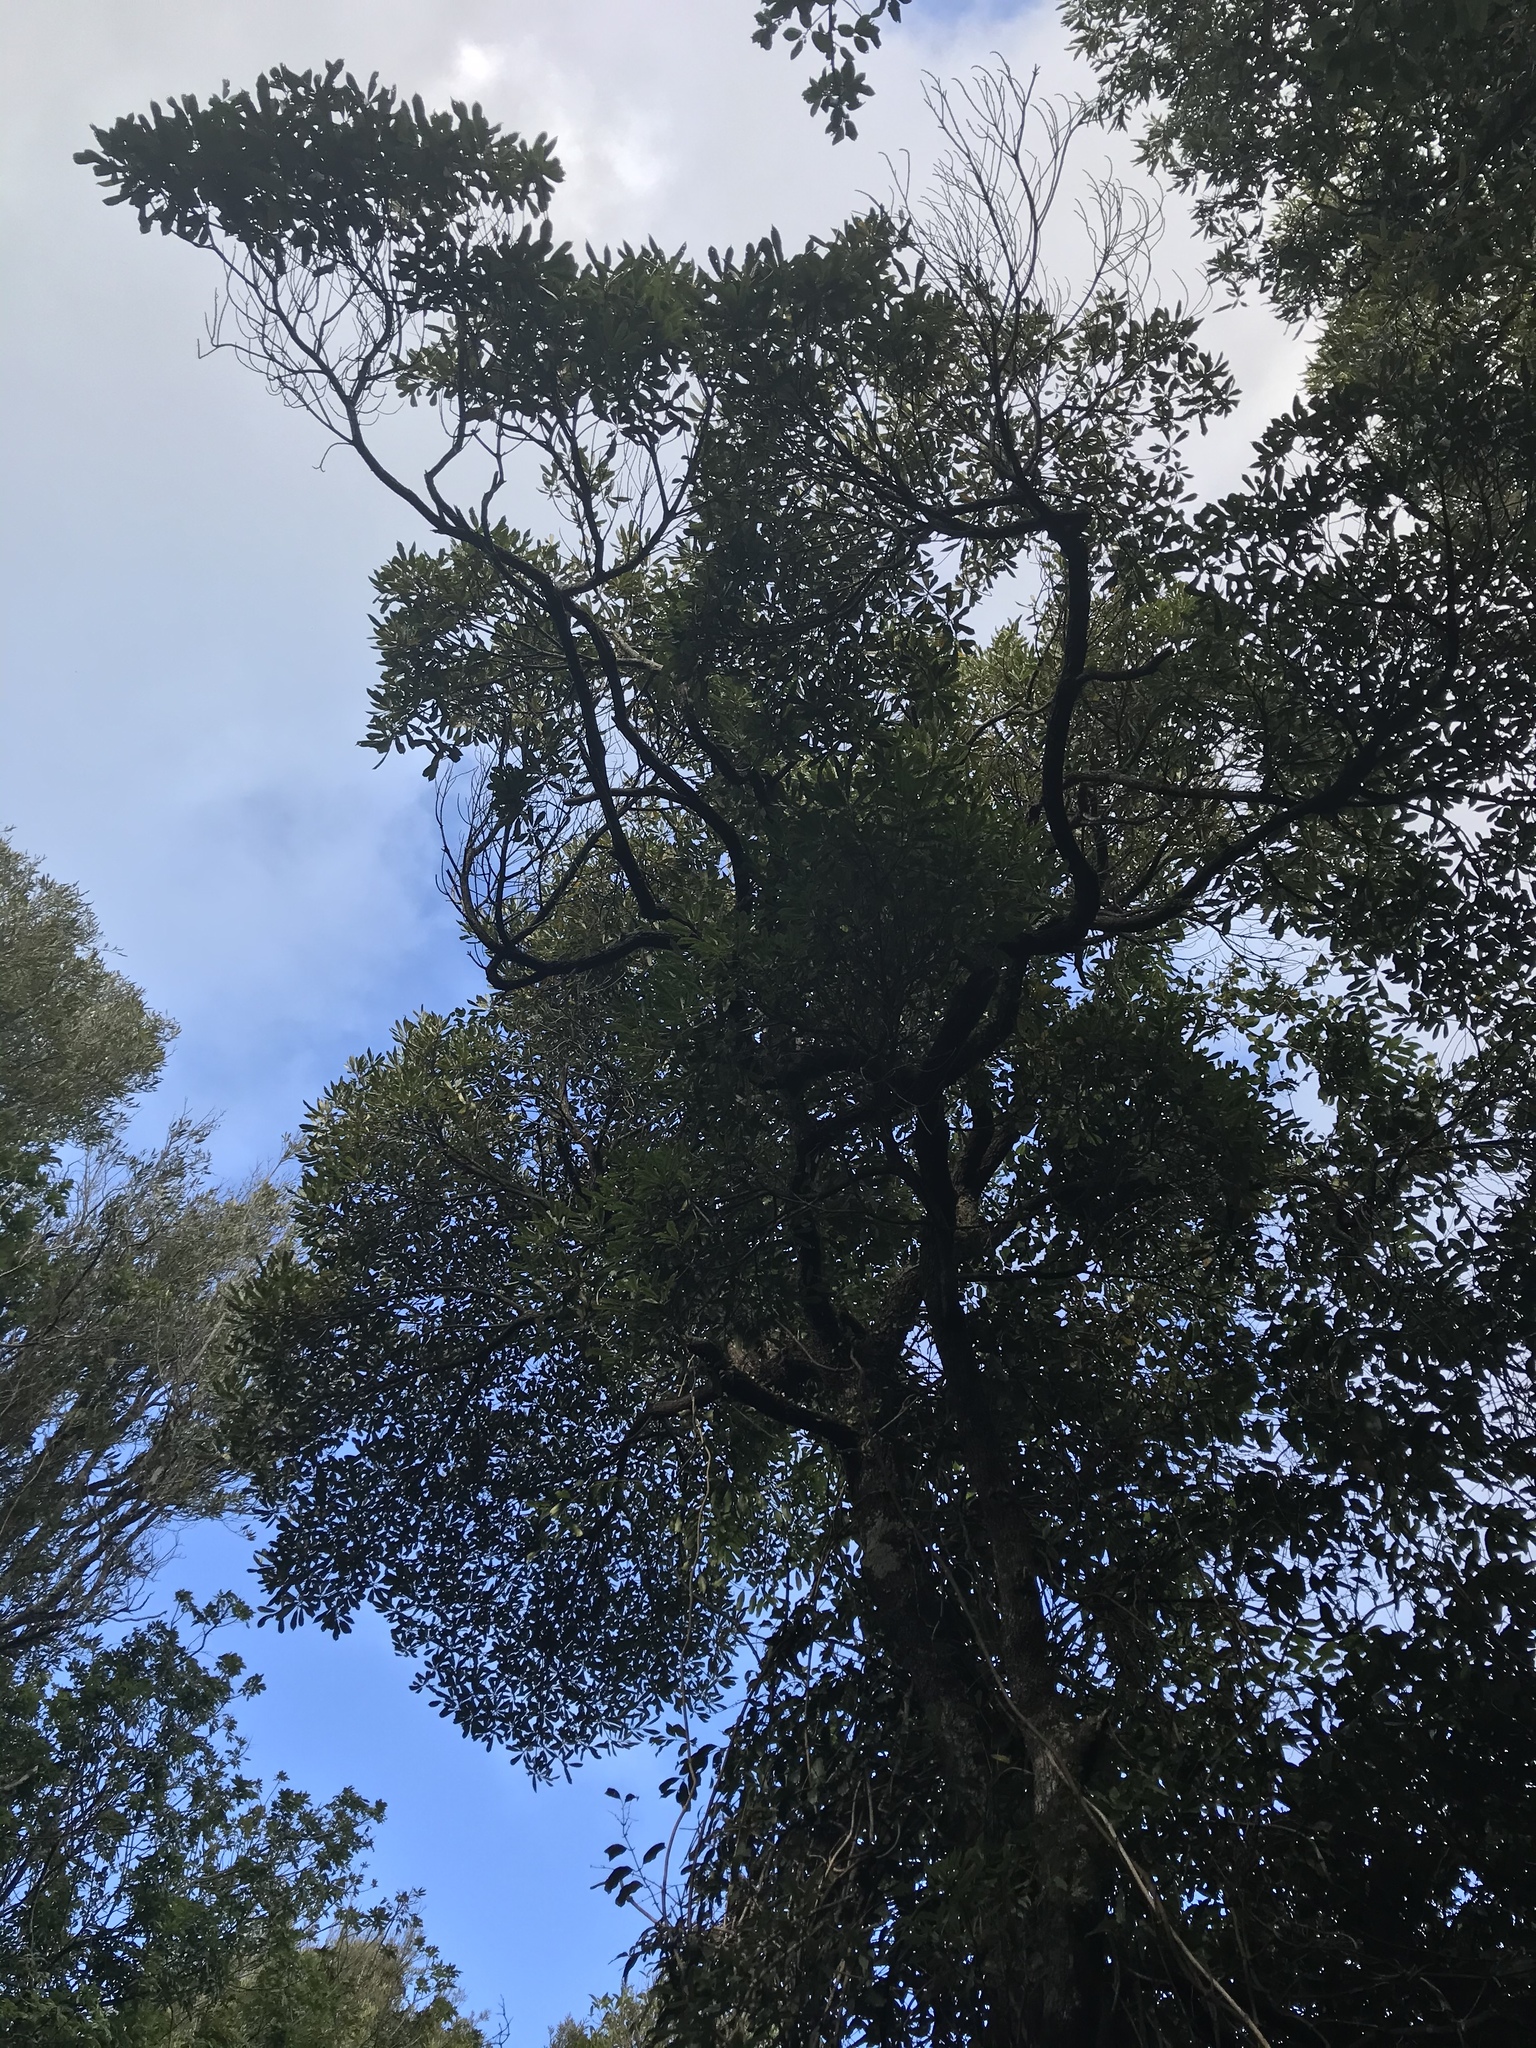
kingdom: Plantae
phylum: Tracheophyta
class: Magnoliopsida
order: Oxalidales
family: Elaeocarpaceae
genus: Elaeocarpus
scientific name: Elaeocarpus dentatus
